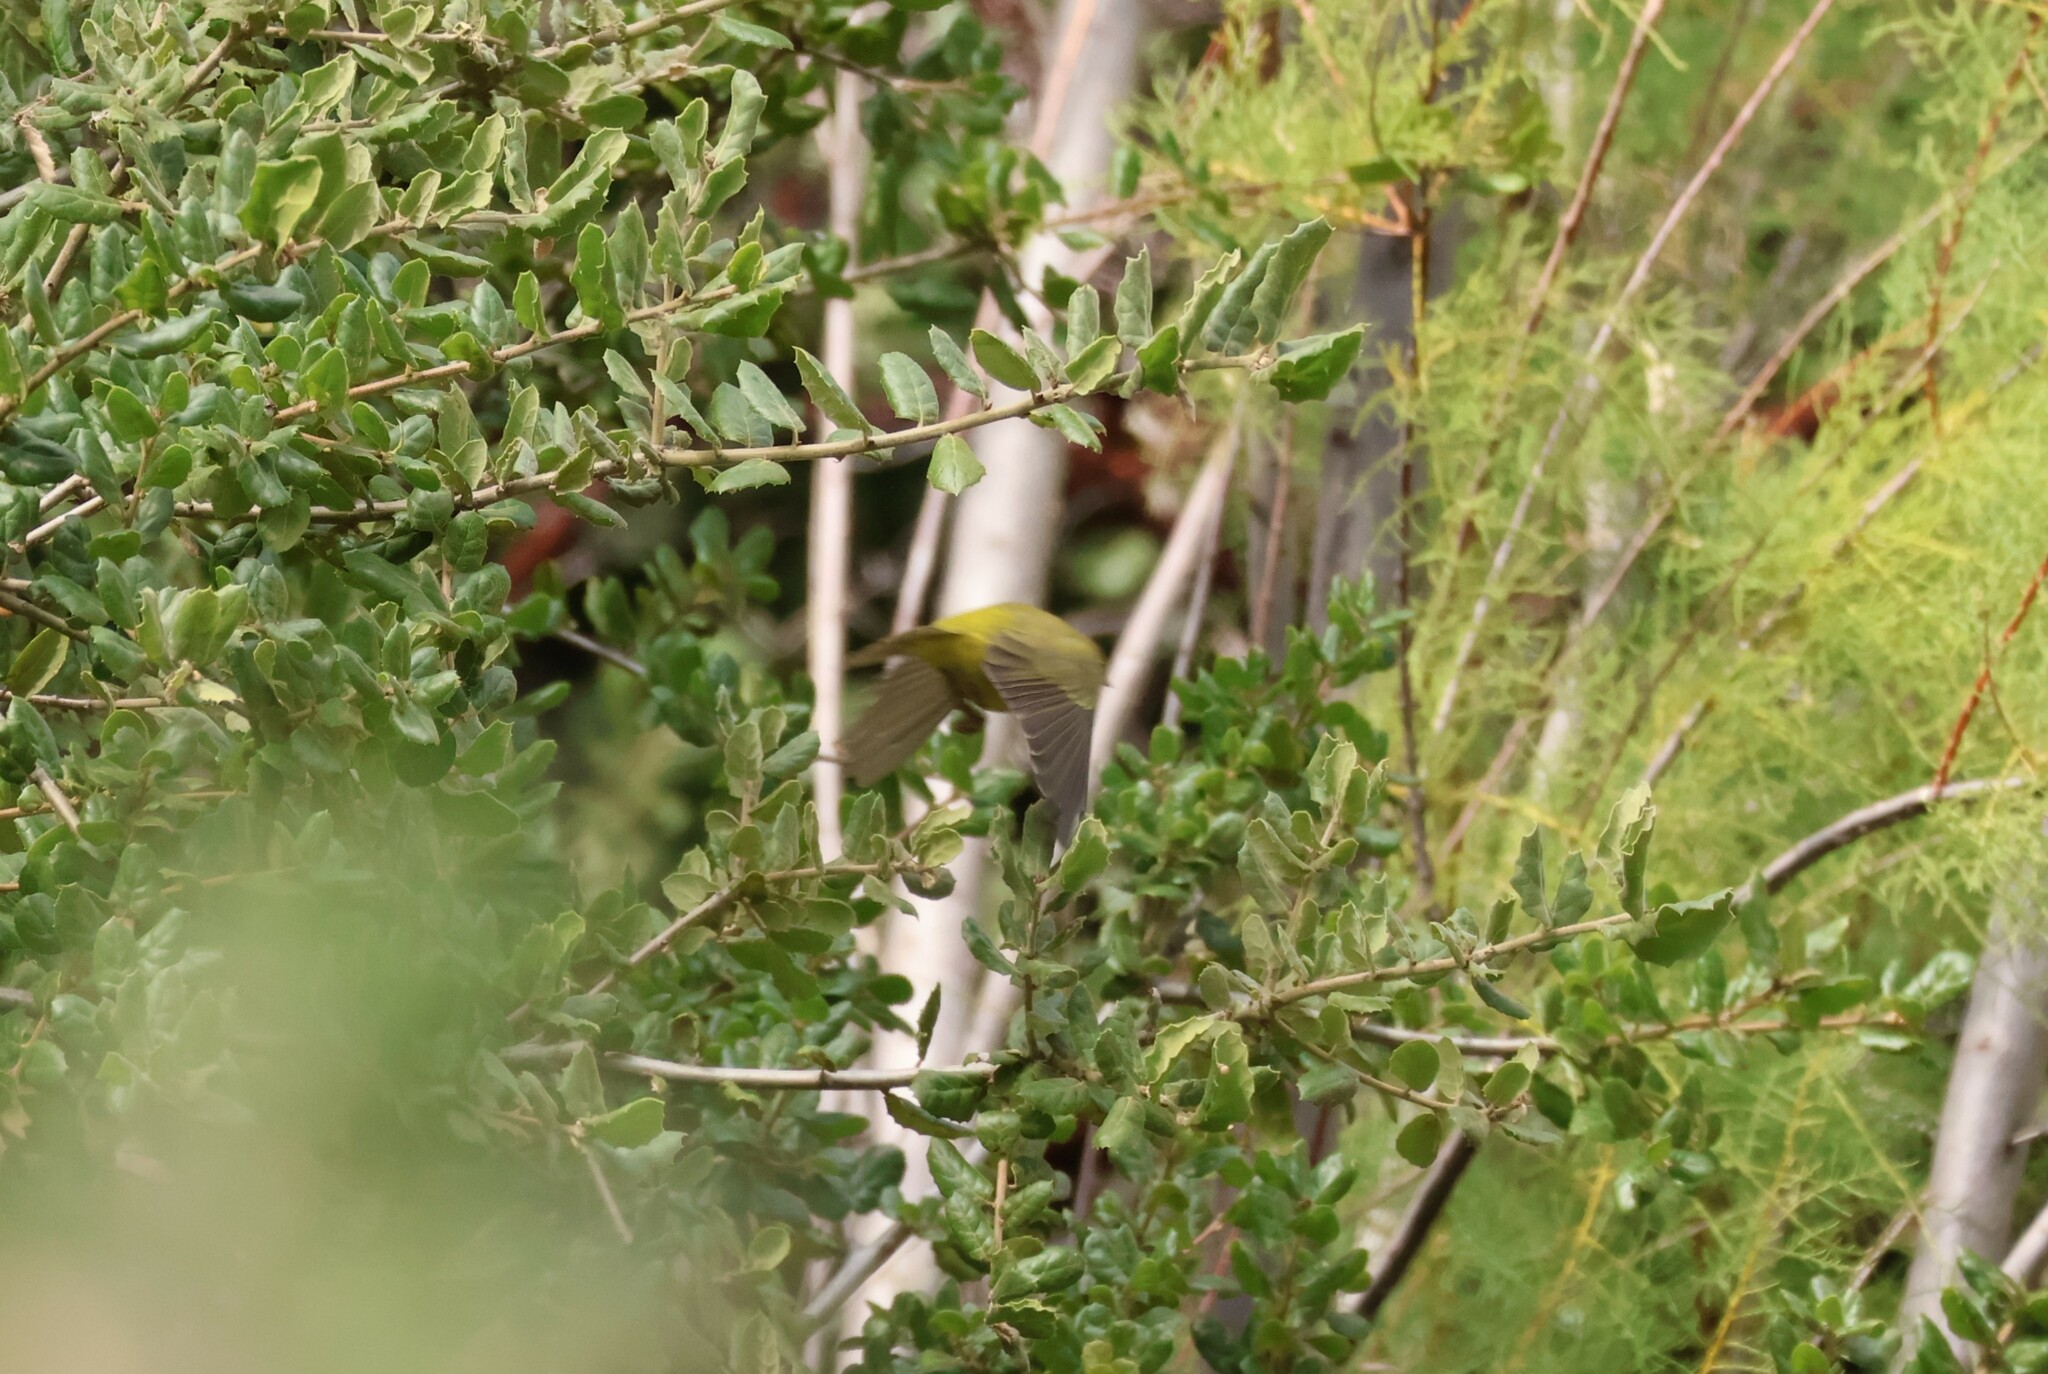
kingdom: Animalia
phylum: Chordata
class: Aves
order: Passeriformes
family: Parulidae
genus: Leiothlypis
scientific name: Leiothlypis celata
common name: Orange-crowned warbler
